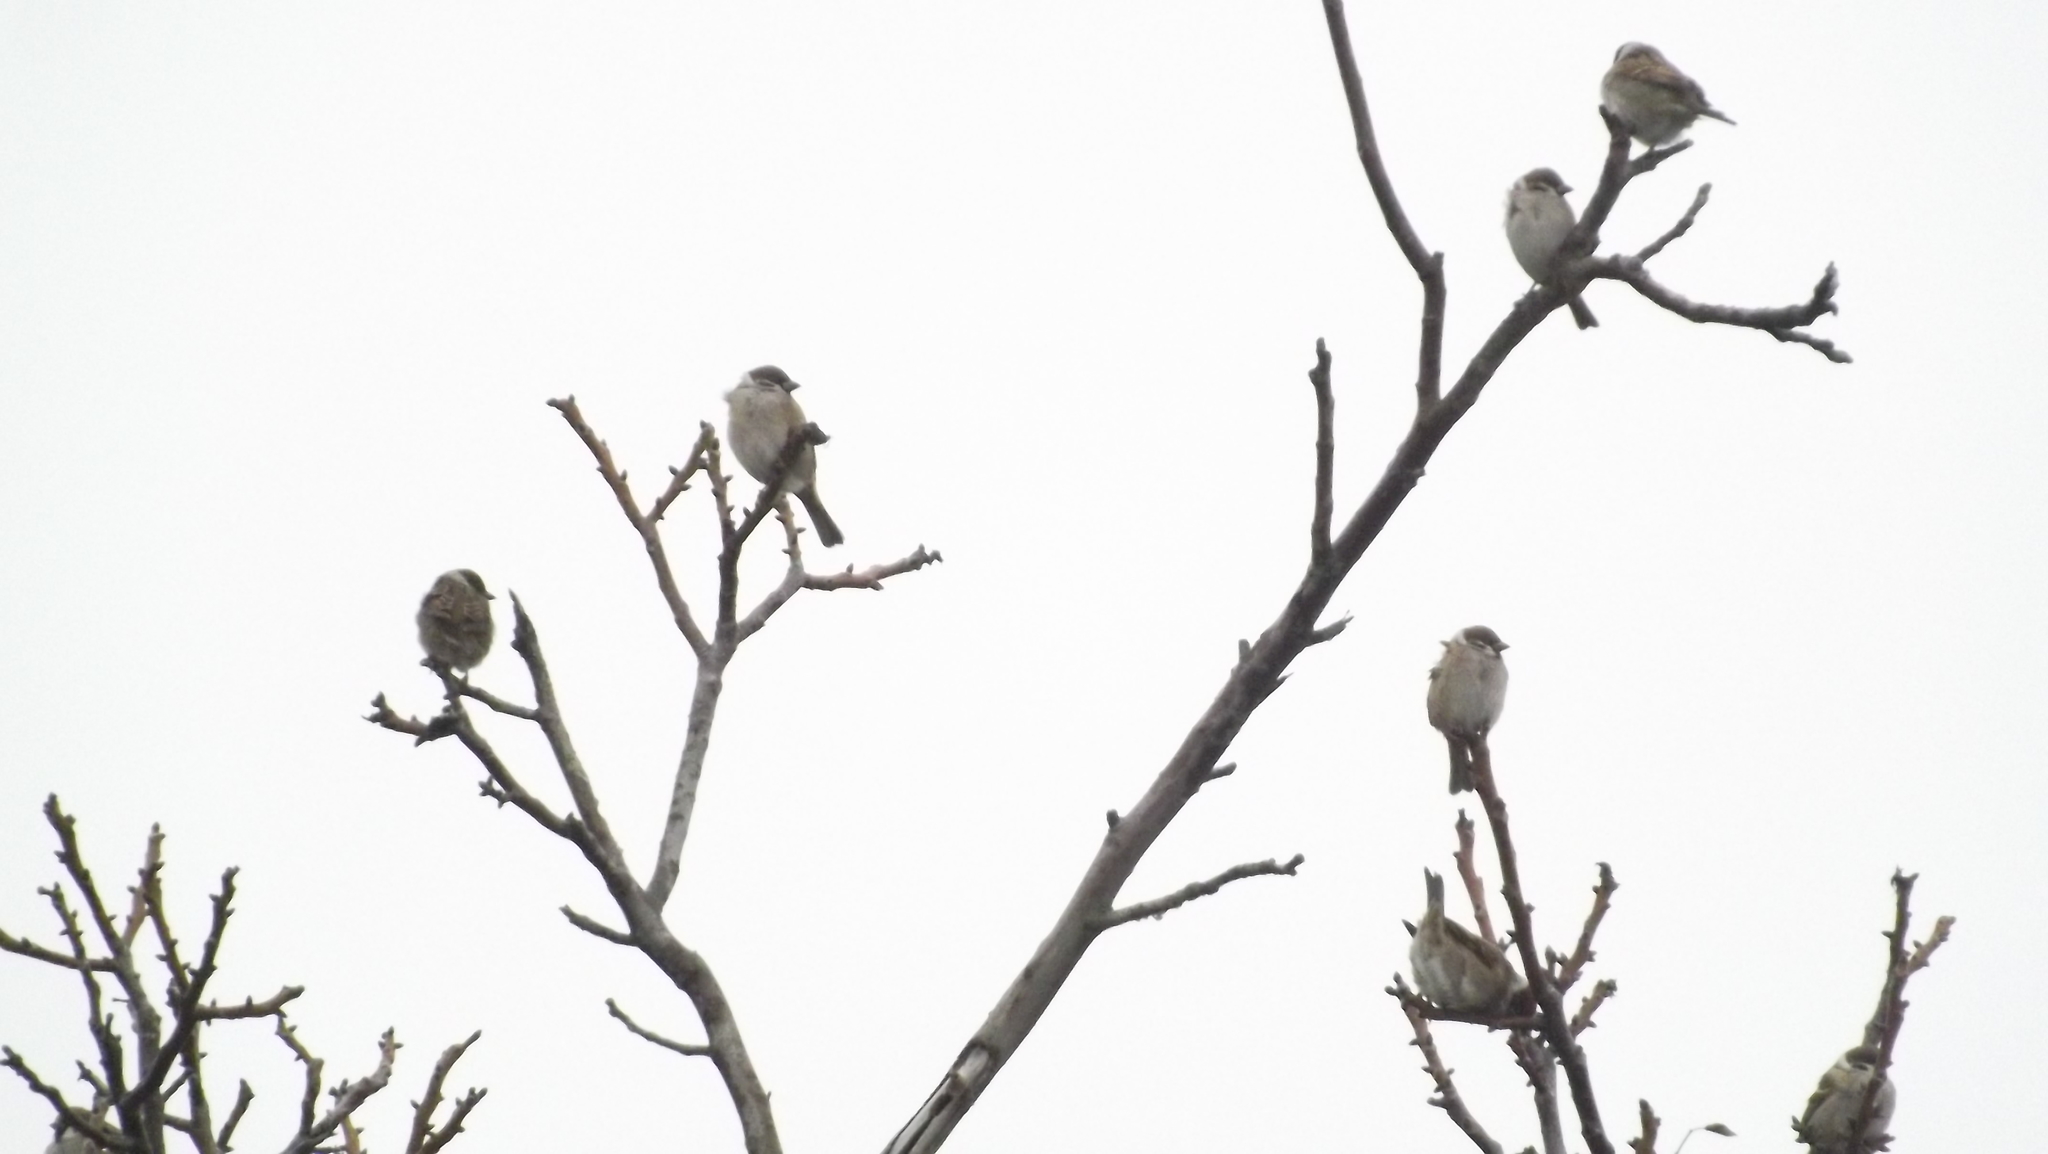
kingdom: Animalia
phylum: Chordata
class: Aves
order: Passeriformes
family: Passeridae
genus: Passer
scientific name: Passer montanus
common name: Eurasian tree sparrow
